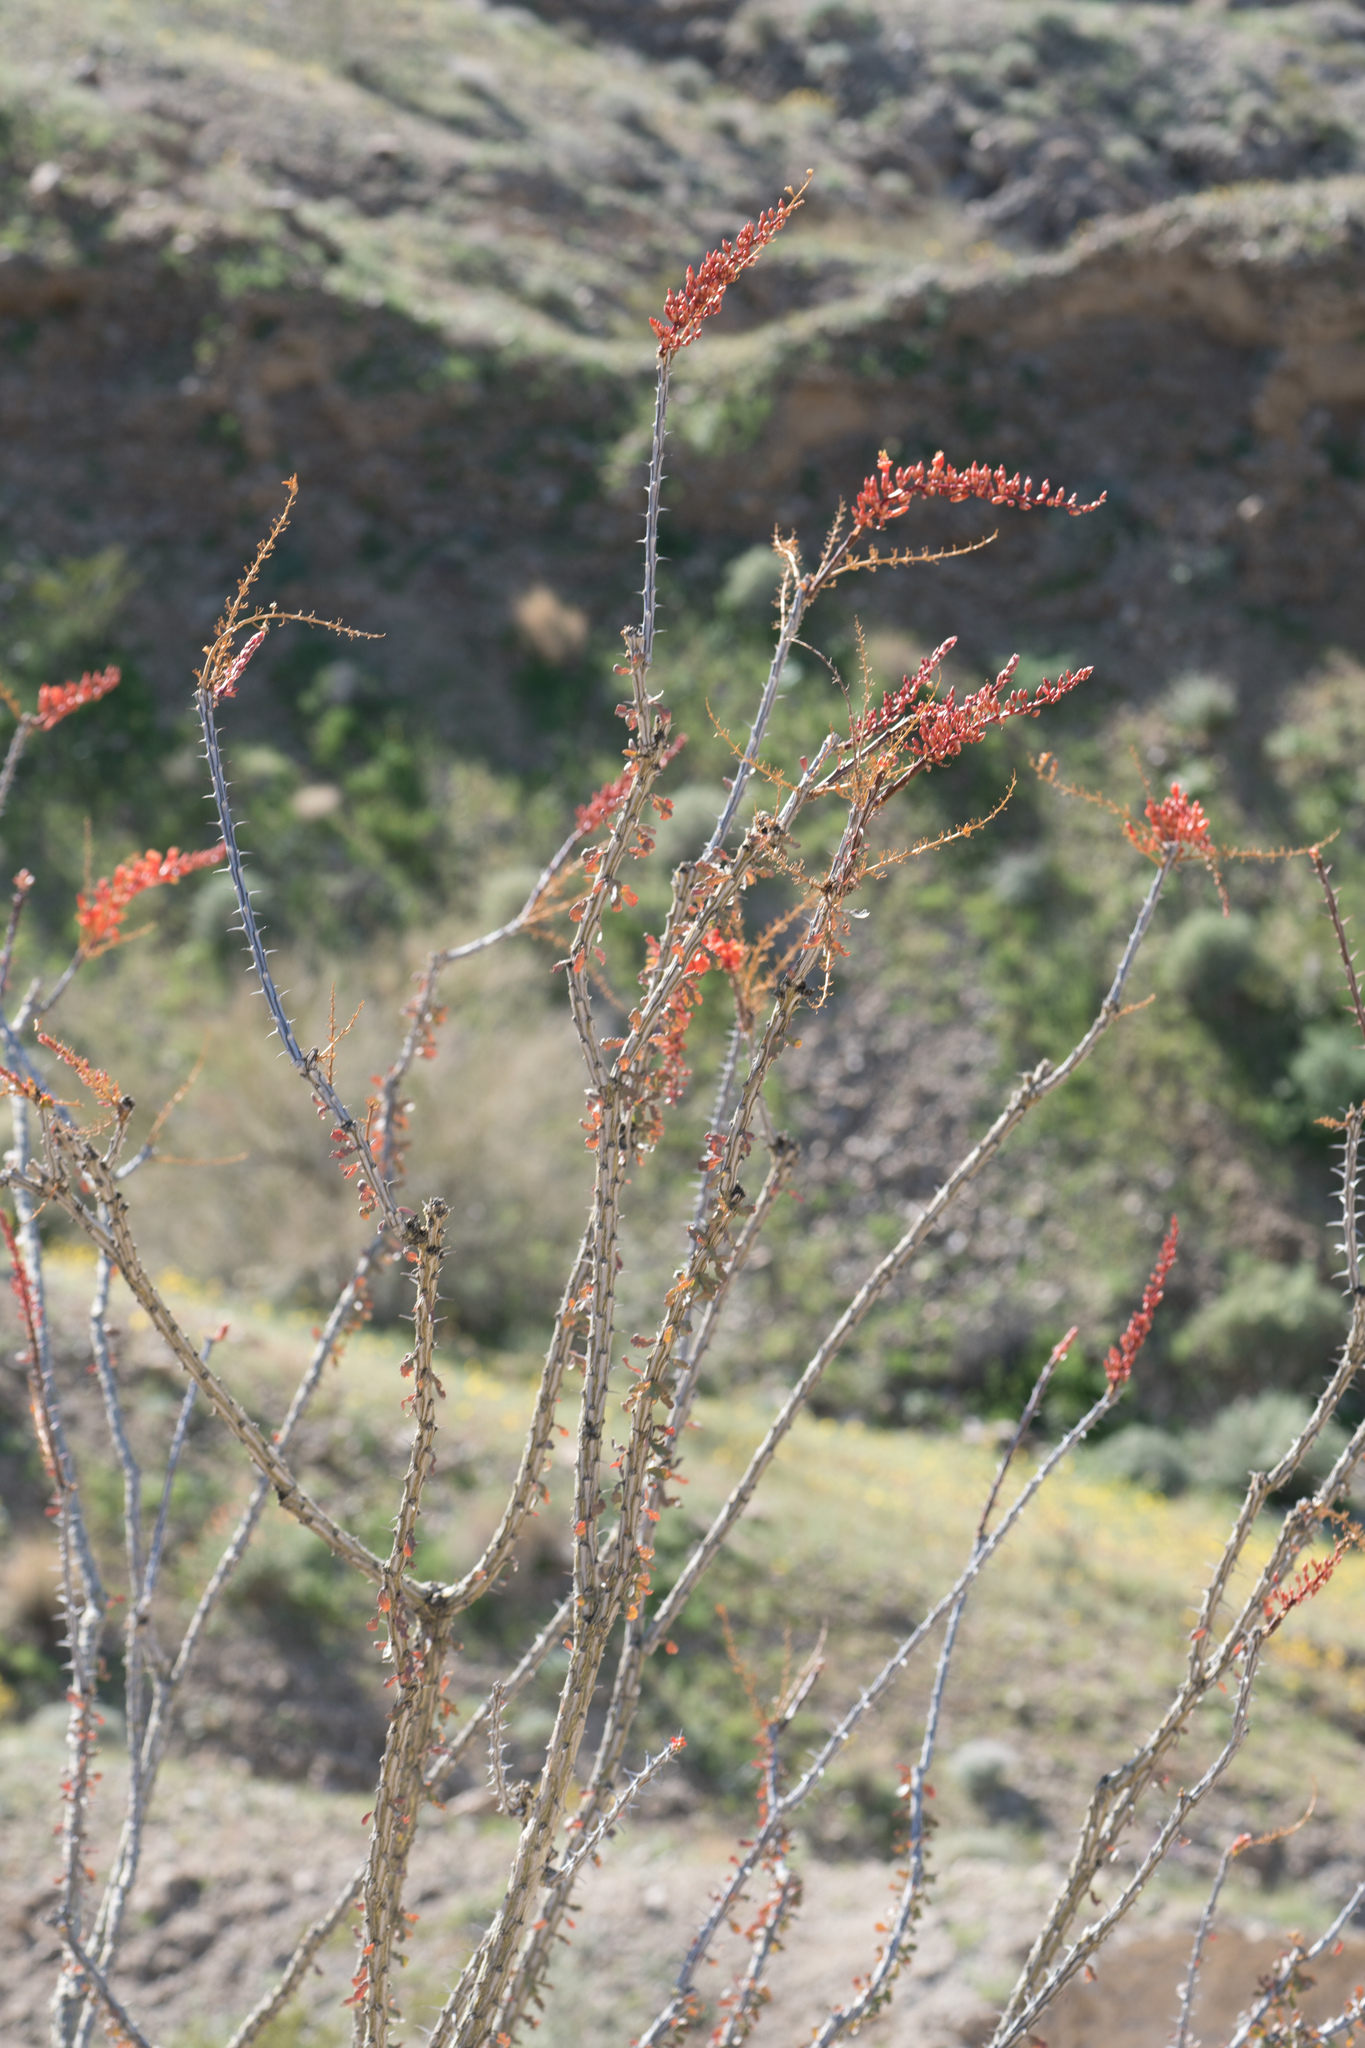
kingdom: Plantae
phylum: Tracheophyta
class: Magnoliopsida
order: Ericales
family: Fouquieriaceae
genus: Fouquieria
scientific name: Fouquieria splendens
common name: Vine-cactus
